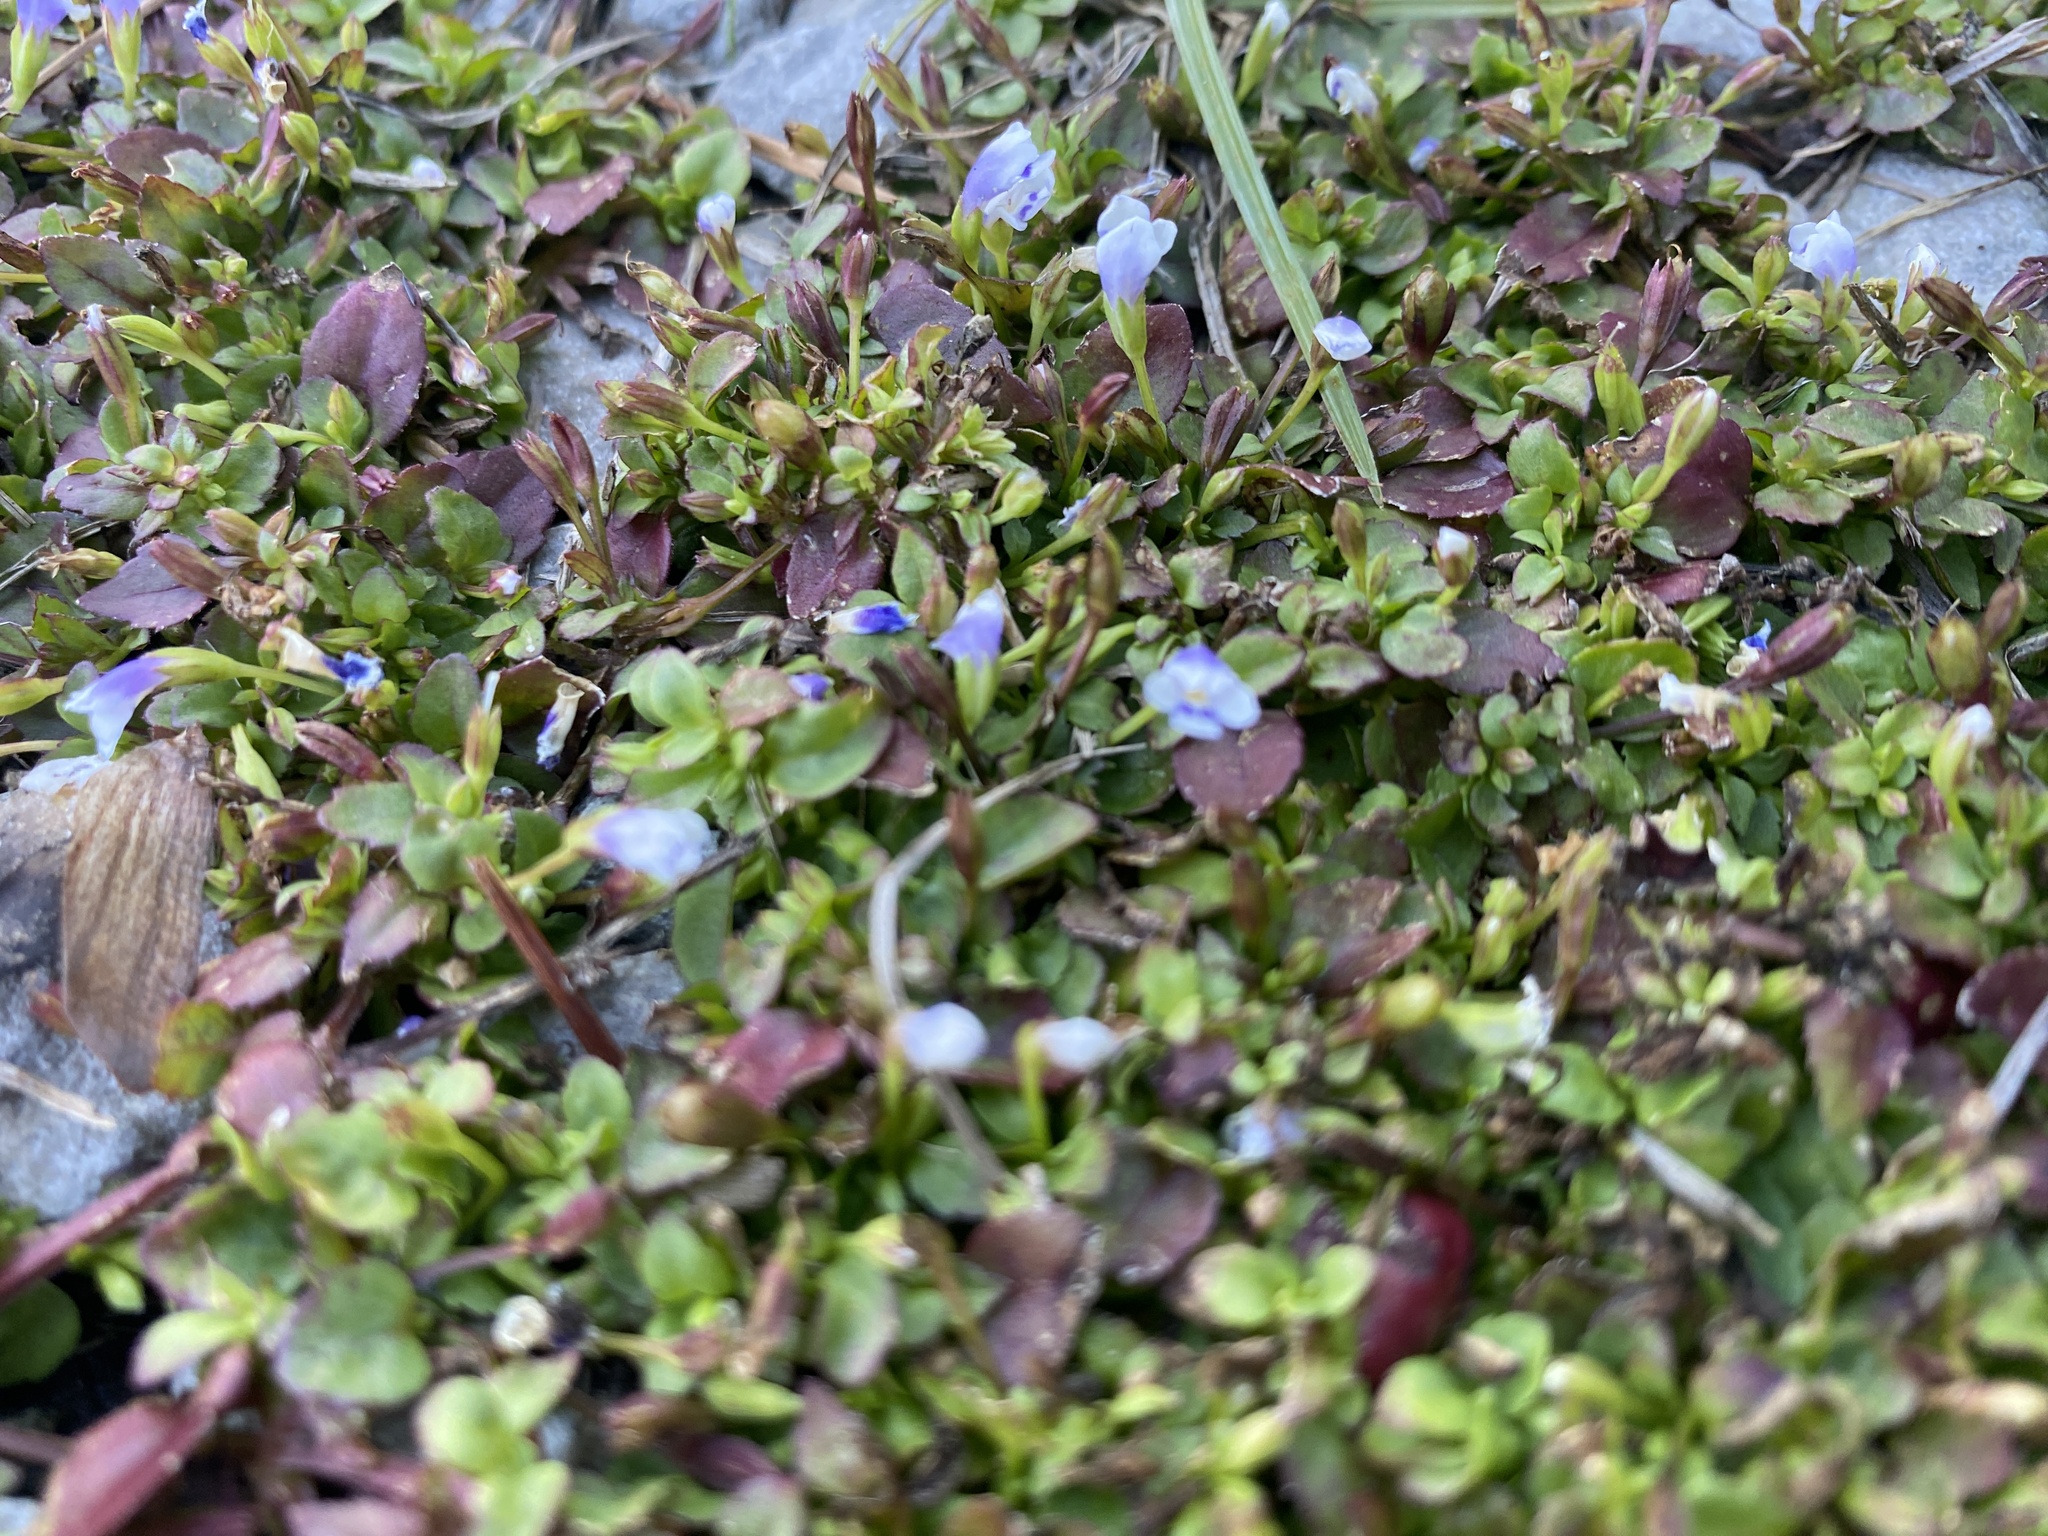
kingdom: Plantae
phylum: Tracheophyta
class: Magnoliopsida
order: Lamiales
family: Mazaceae
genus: Mazus
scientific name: Mazus pumilus
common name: Japanese mazus
